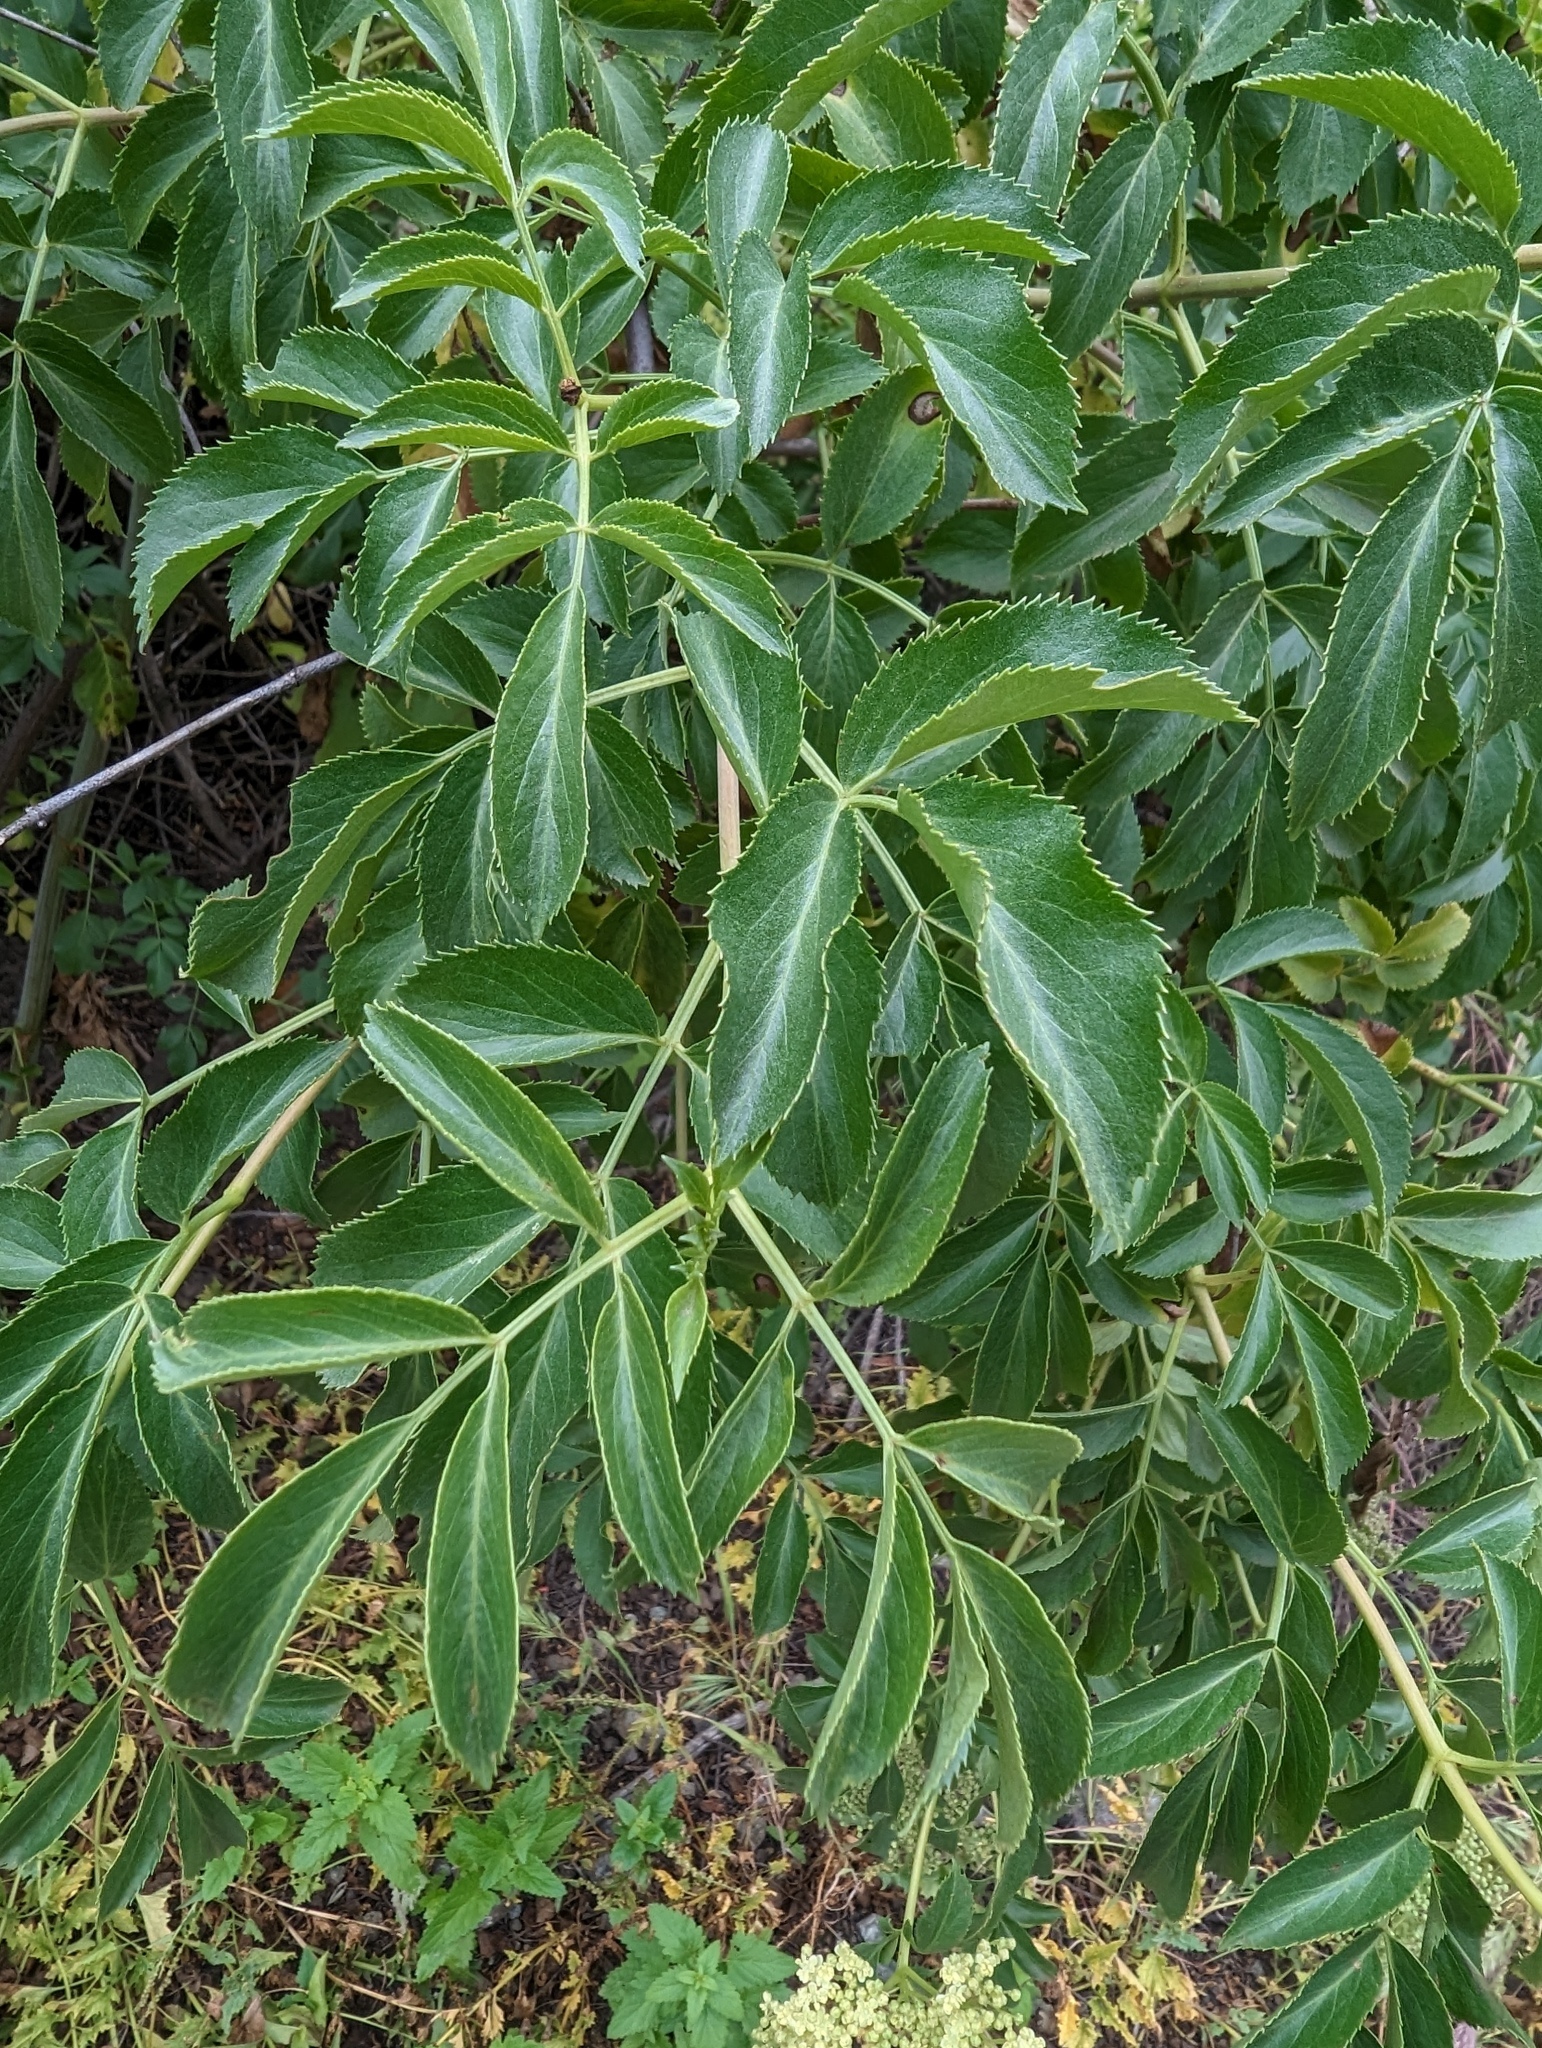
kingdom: Plantae
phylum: Tracheophyta
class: Magnoliopsida
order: Dipsacales
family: Viburnaceae
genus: Sambucus
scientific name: Sambucus cerulea
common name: Blue elder
